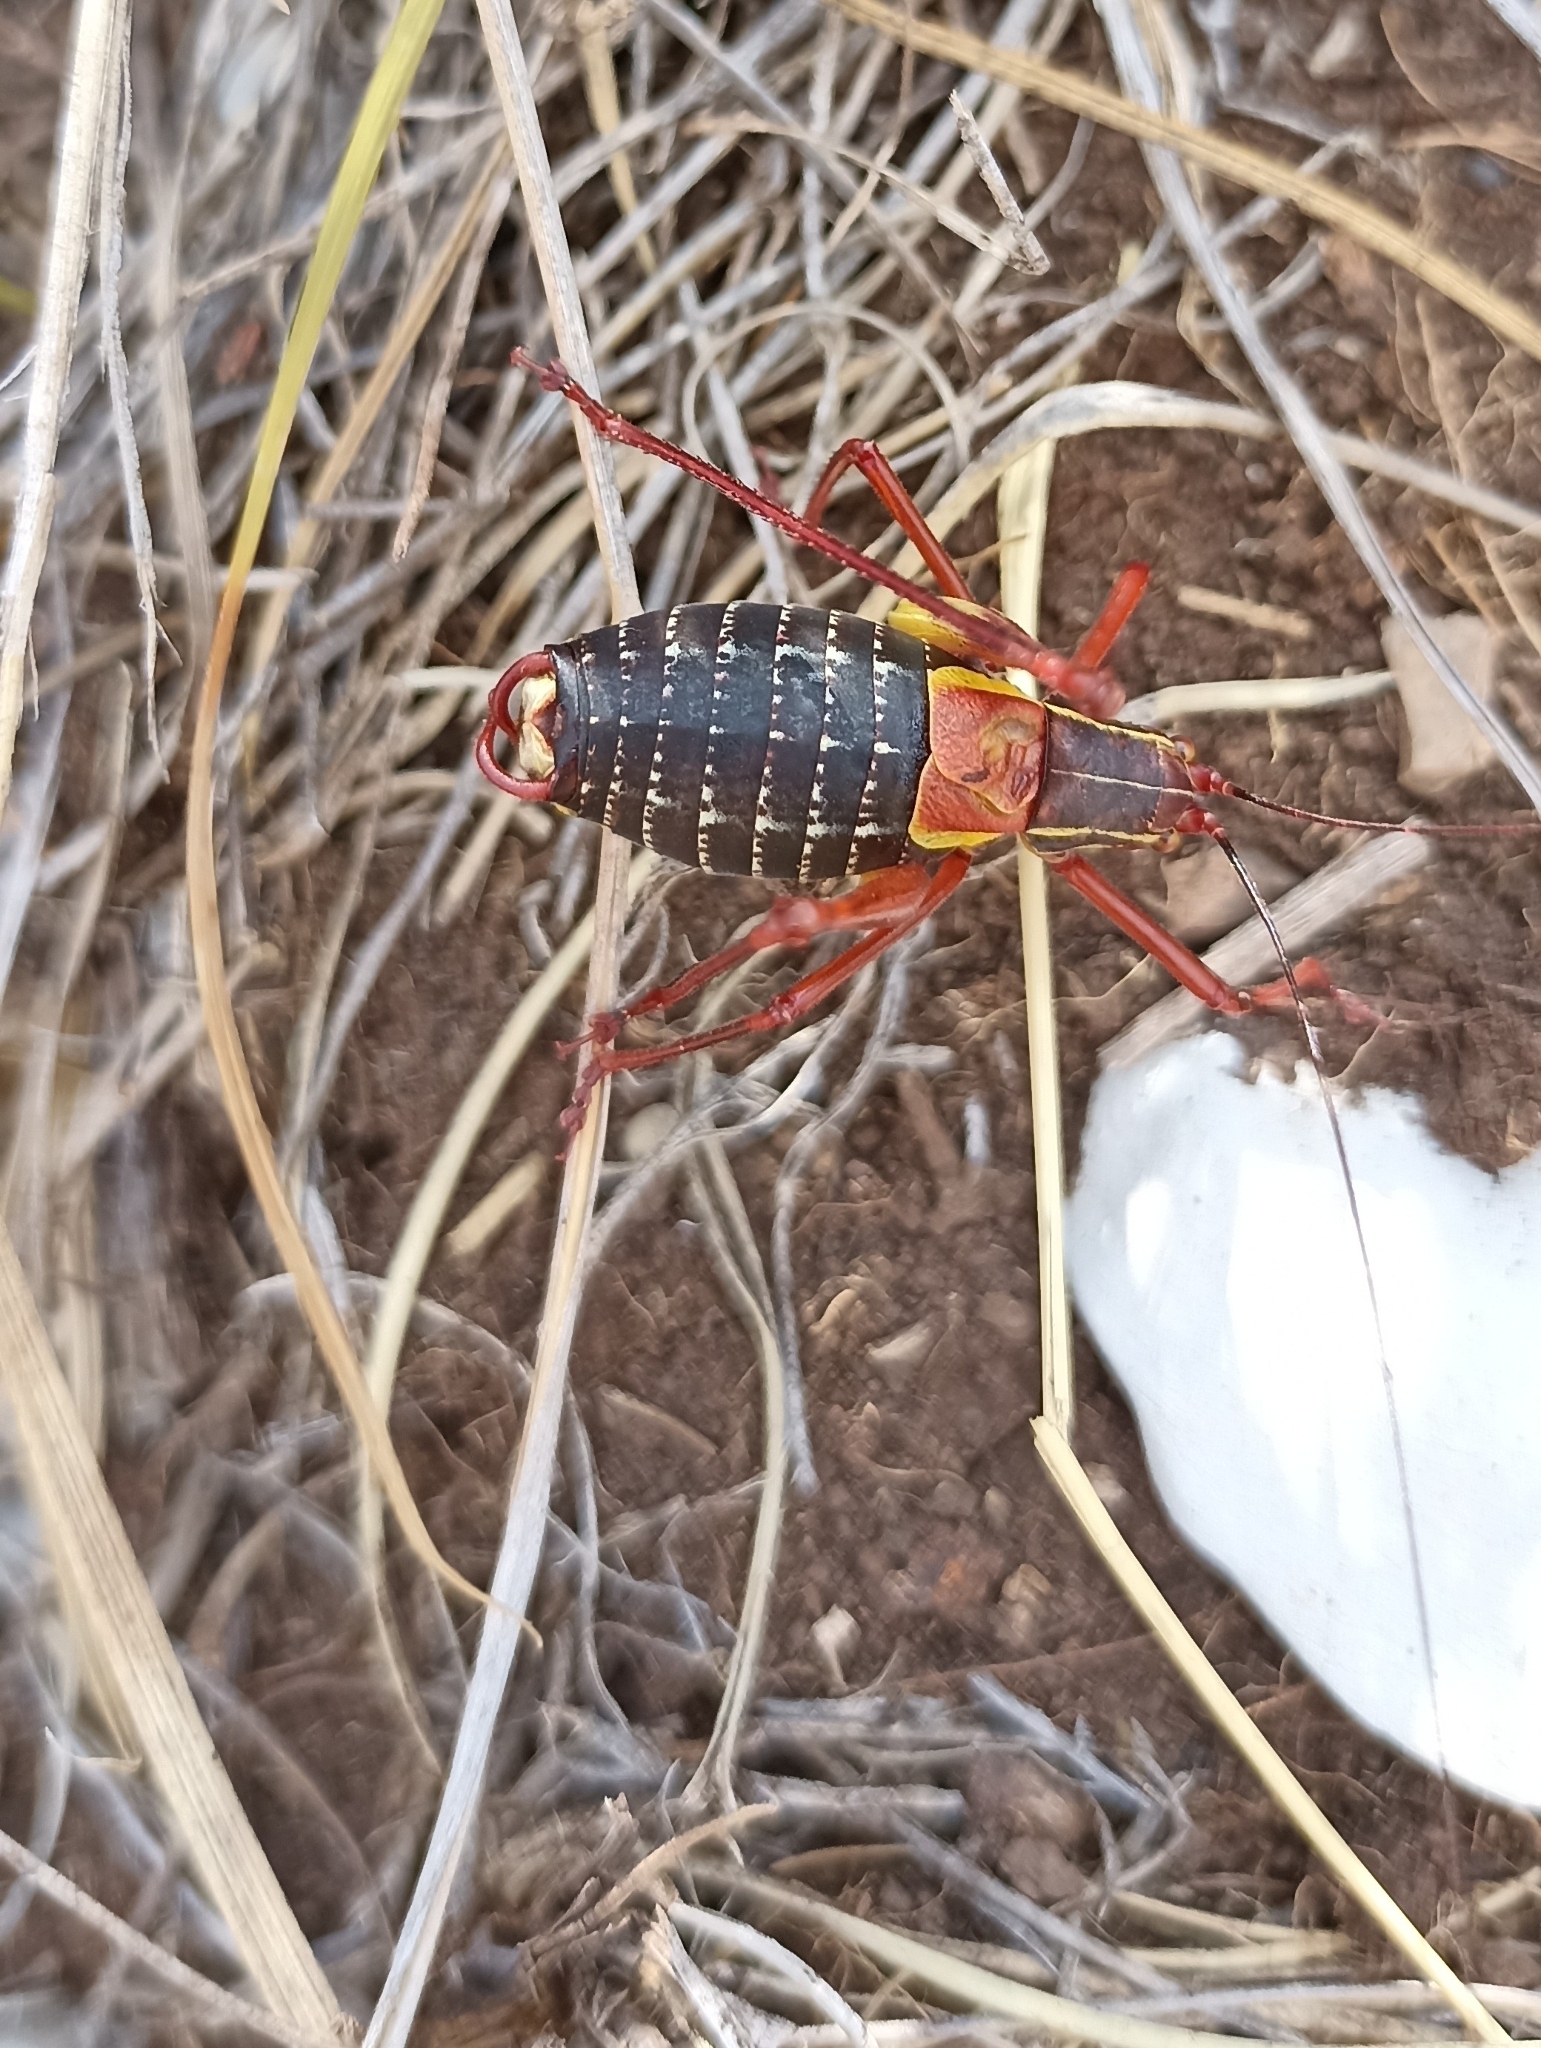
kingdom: Animalia
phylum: Arthropoda
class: Insecta
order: Orthoptera
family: Tettigoniidae
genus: Barbitistes
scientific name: Barbitistes obtusus
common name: Alpine saw bush-cricket
